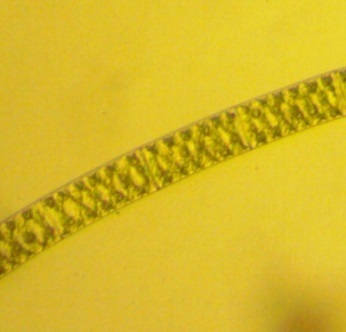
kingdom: Plantae
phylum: Charophyta
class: Zygnematophyceae
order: Zygnematales
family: Zygnemataceae
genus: Spirogyra
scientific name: Spirogyra
